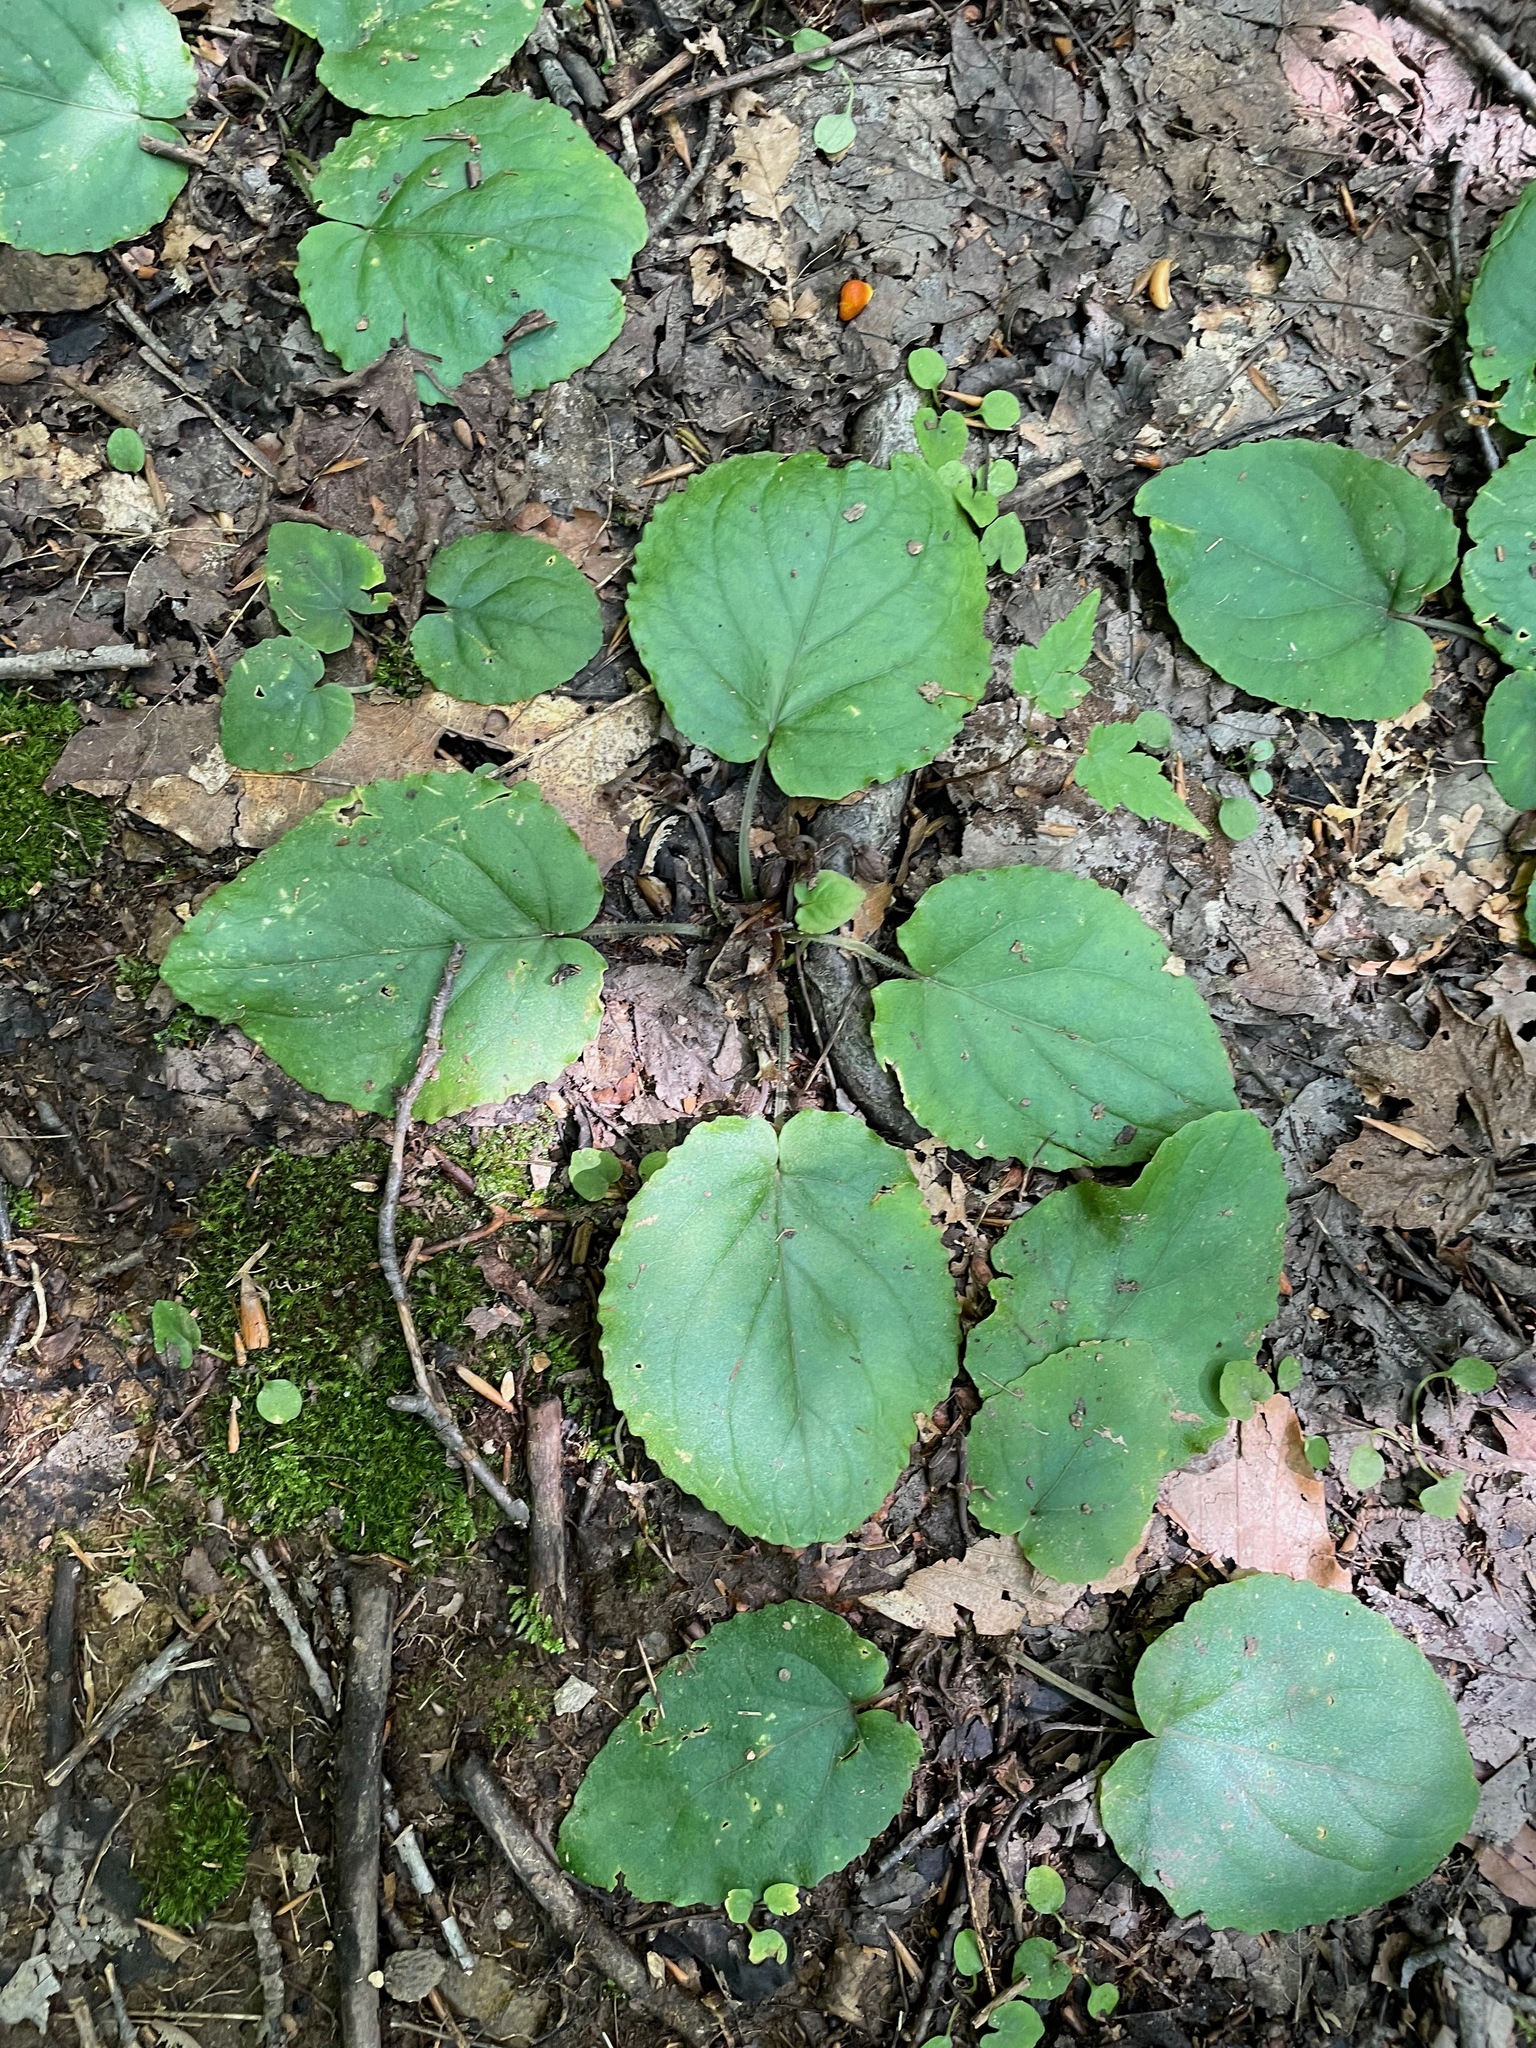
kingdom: Plantae
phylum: Tracheophyta
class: Magnoliopsida
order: Malpighiales
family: Violaceae
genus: Viola
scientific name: Viola rotundifolia
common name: Early yellow violet
